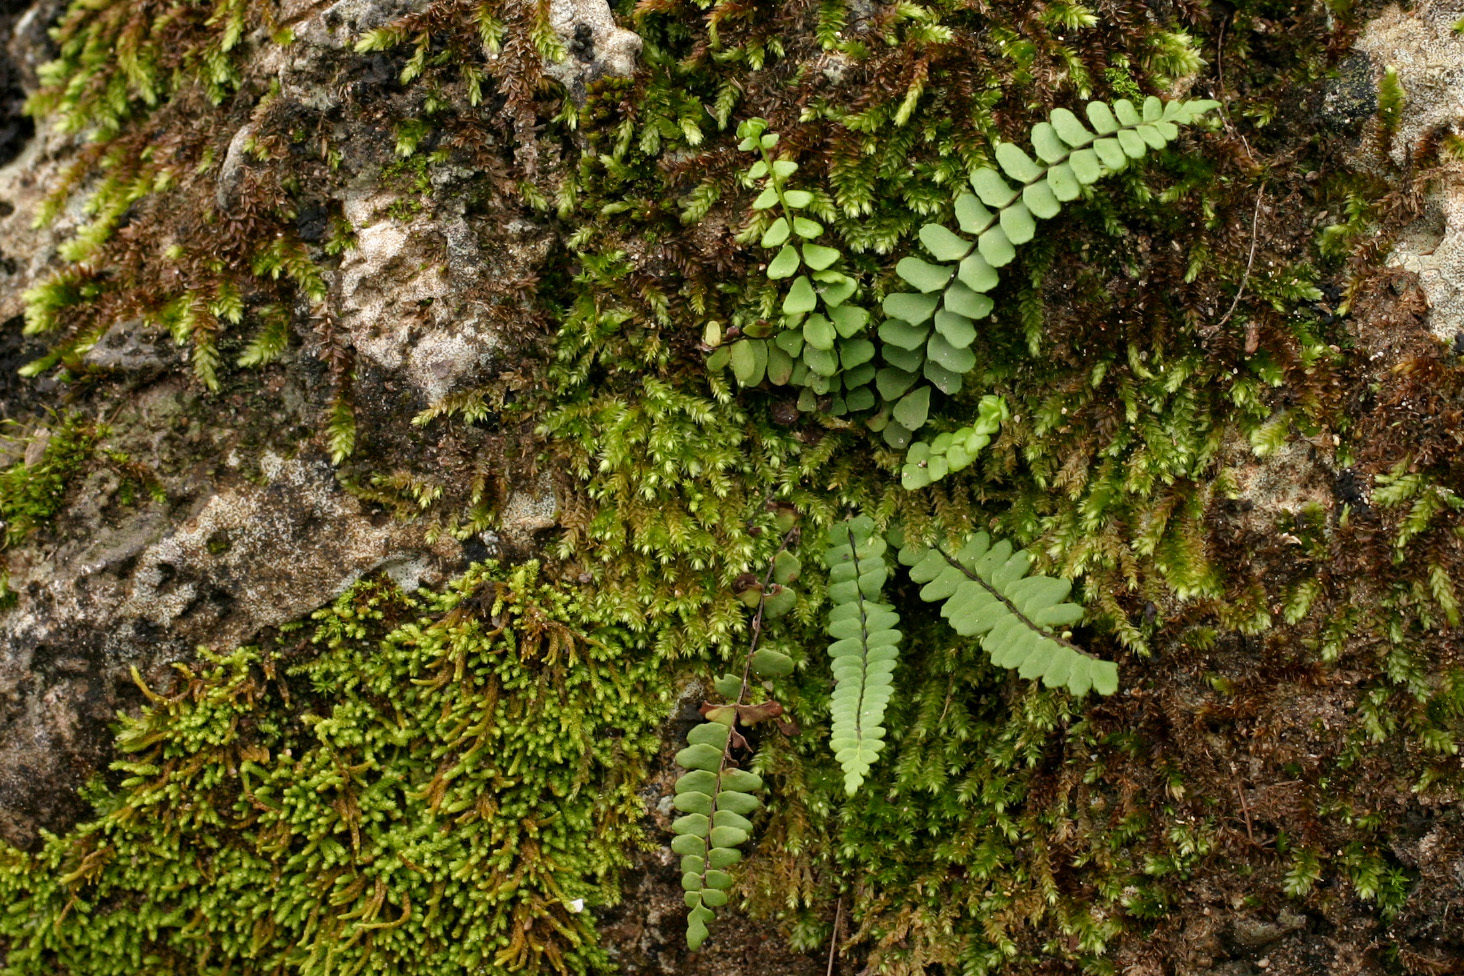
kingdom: Plantae
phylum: Tracheophyta
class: Polypodiopsida
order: Polypodiales
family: Aspleniaceae
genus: Asplenium
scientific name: Asplenium resiliens
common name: Blackstem spleenwort
